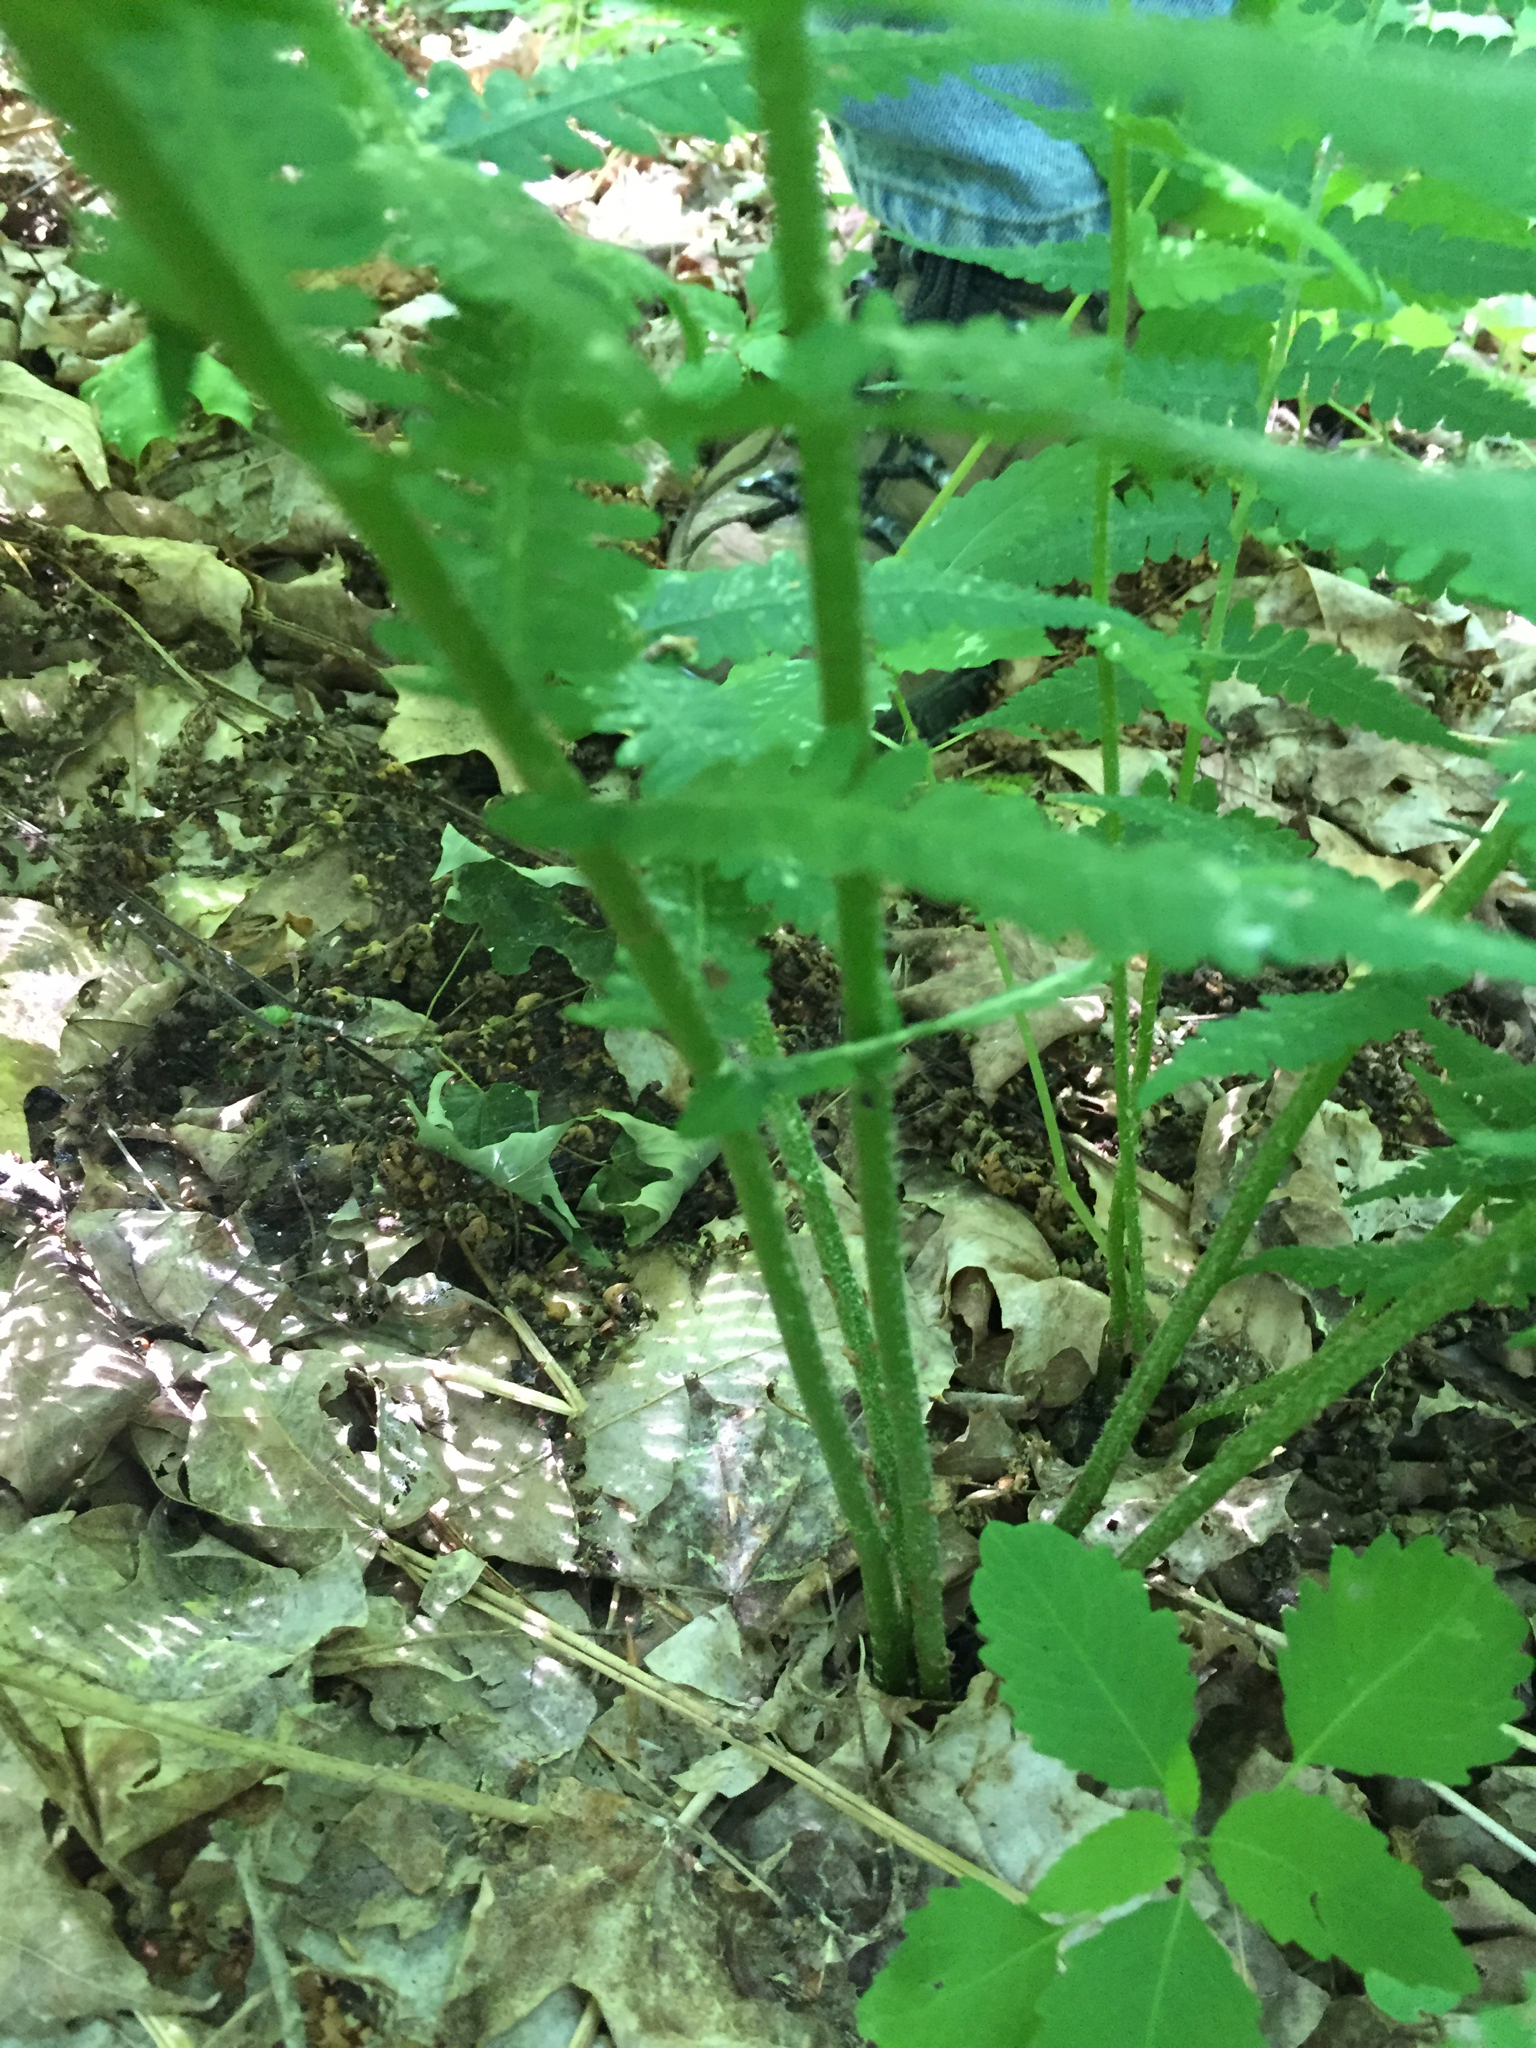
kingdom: Plantae
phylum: Tracheophyta
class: Polypodiopsida
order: Polypodiales
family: Athyriaceae
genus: Deparia
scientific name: Deparia acrostichoides
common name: Silver false spleenwort
